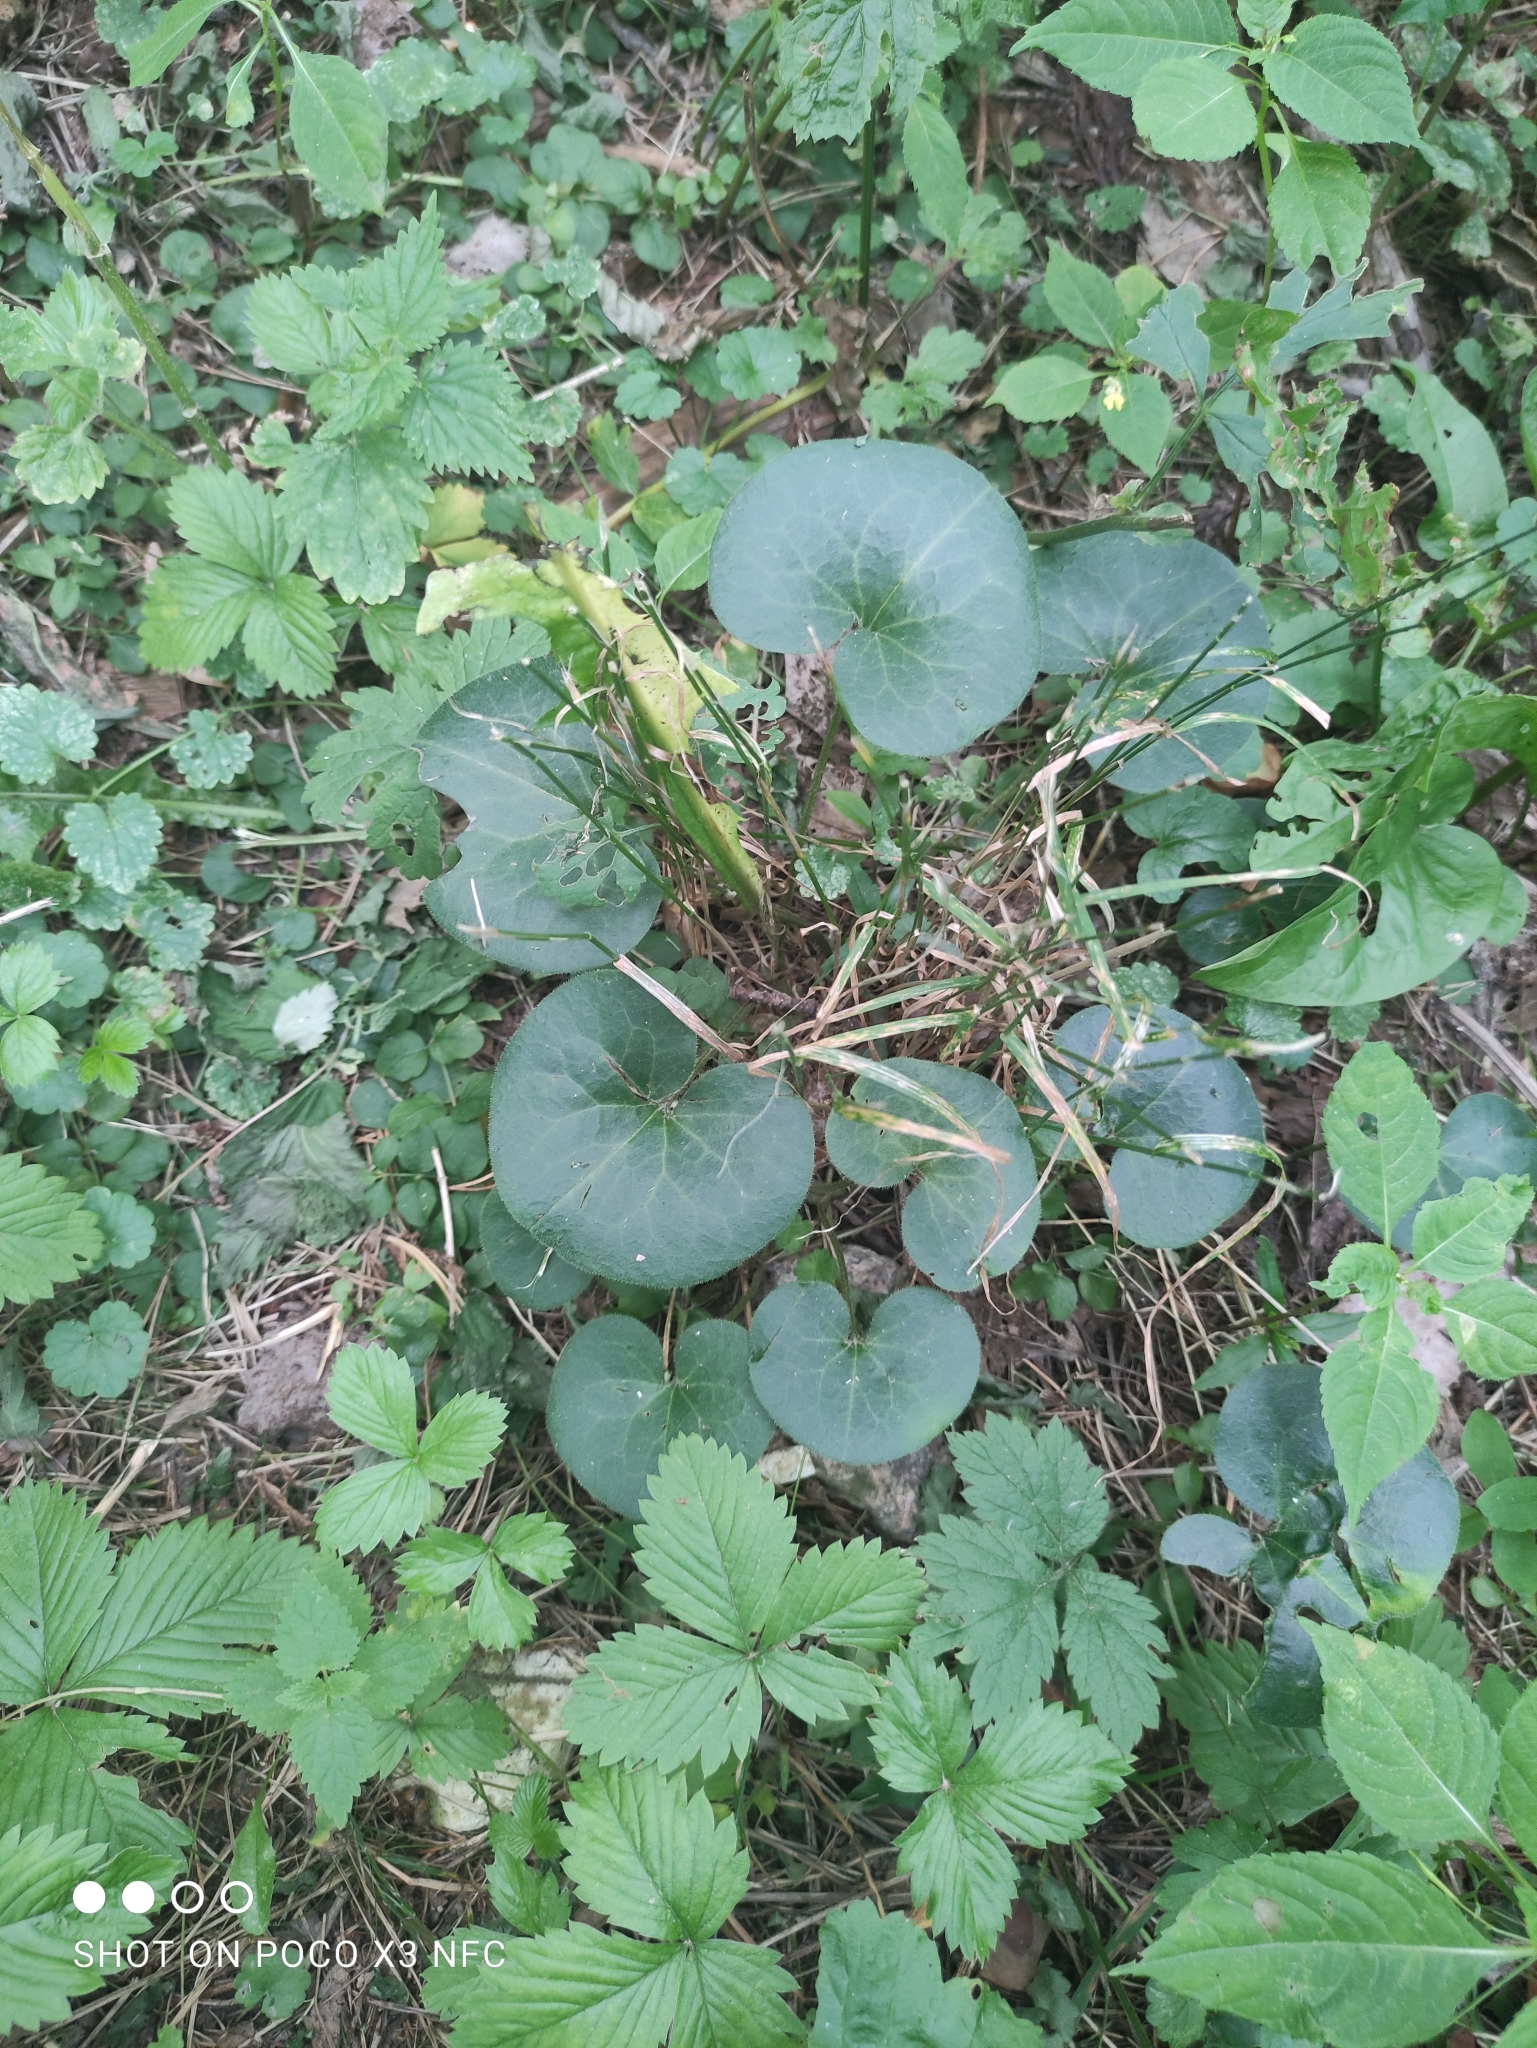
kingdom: Plantae
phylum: Tracheophyta
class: Magnoliopsida
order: Piperales
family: Aristolochiaceae
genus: Asarum
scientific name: Asarum europaeum
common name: Asarabacca
